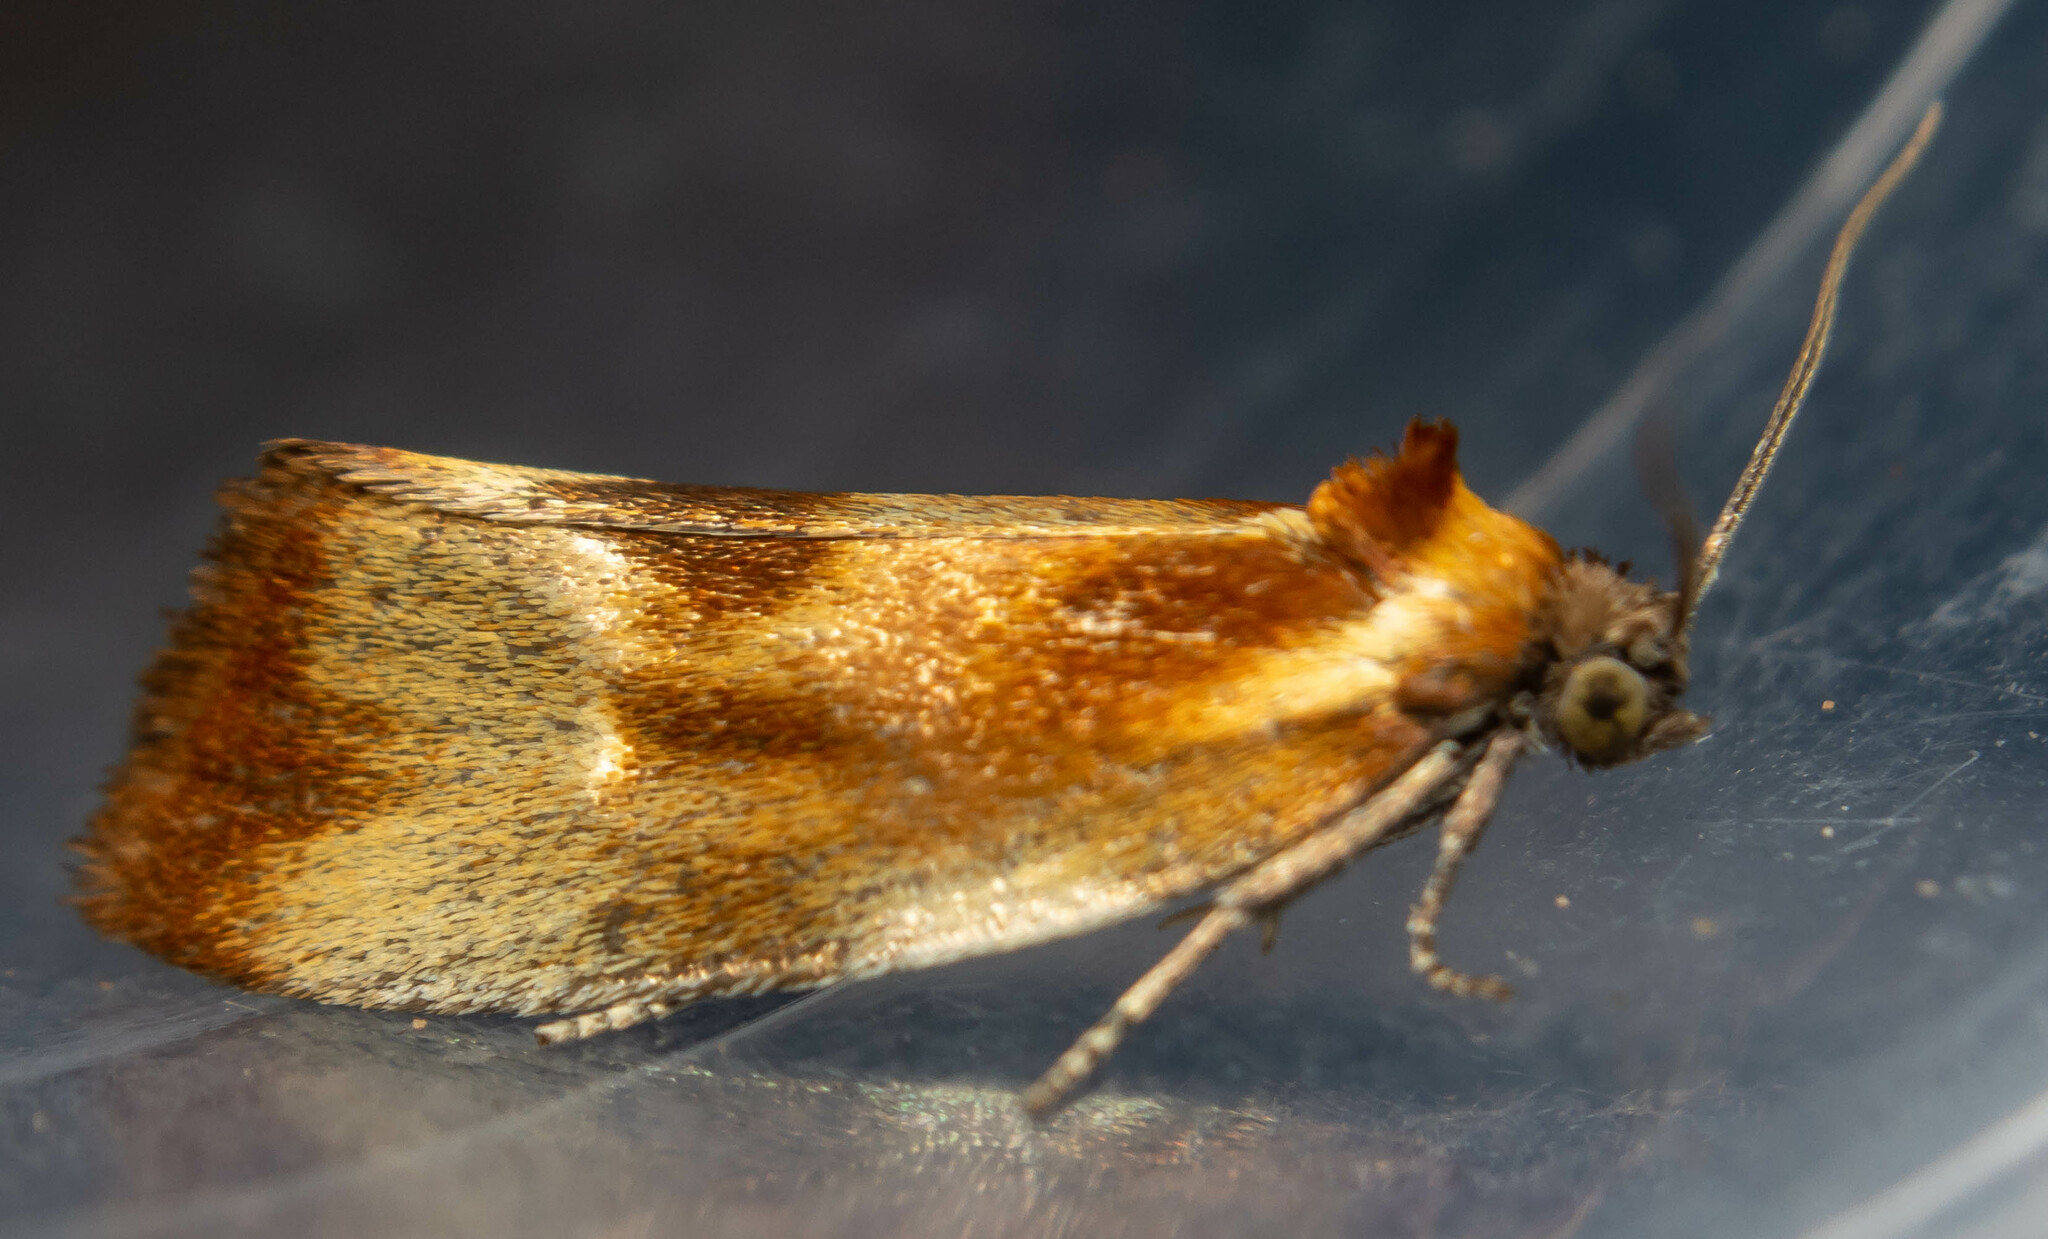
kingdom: Animalia
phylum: Arthropoda
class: Insecta
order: Lepidoptera
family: Tortricidae
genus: Eulia
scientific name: Eulia ministrana
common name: Brassy twist
